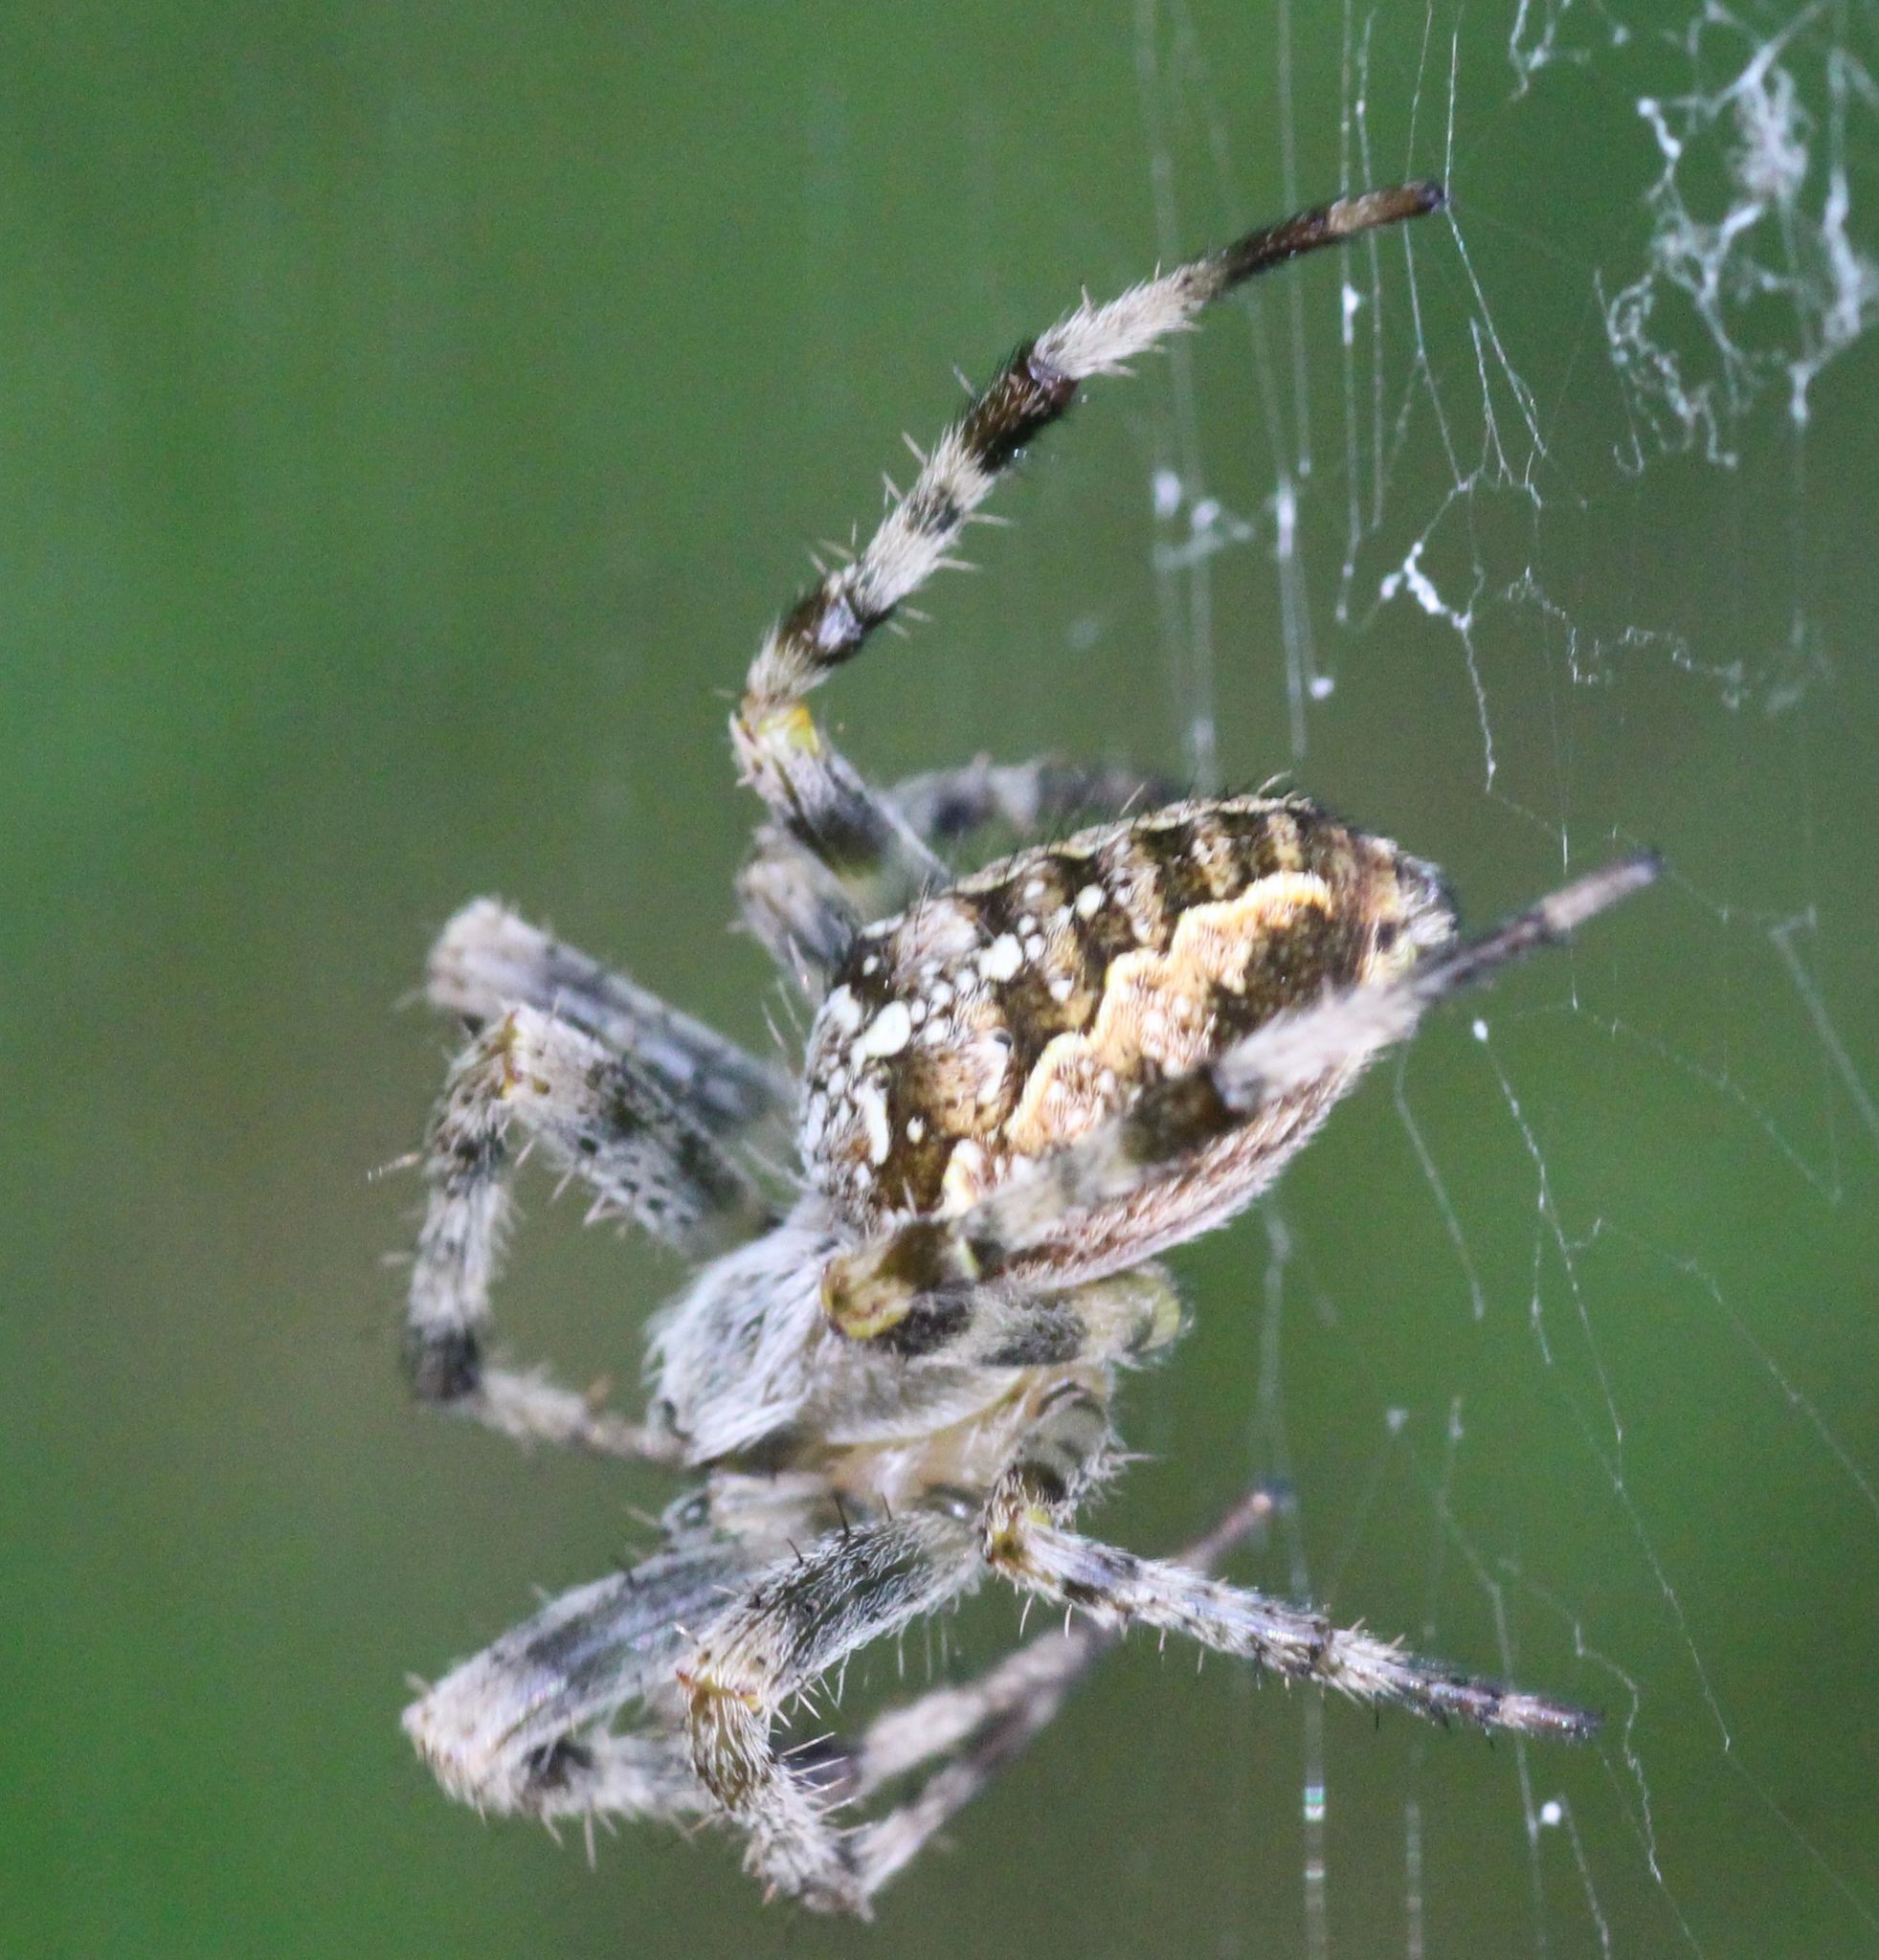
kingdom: Animalia
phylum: Arthropoda
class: Arachnida
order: Araneae
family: Araneidae
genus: Araneus
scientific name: Araneus diadematus
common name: Cross orbweaver
